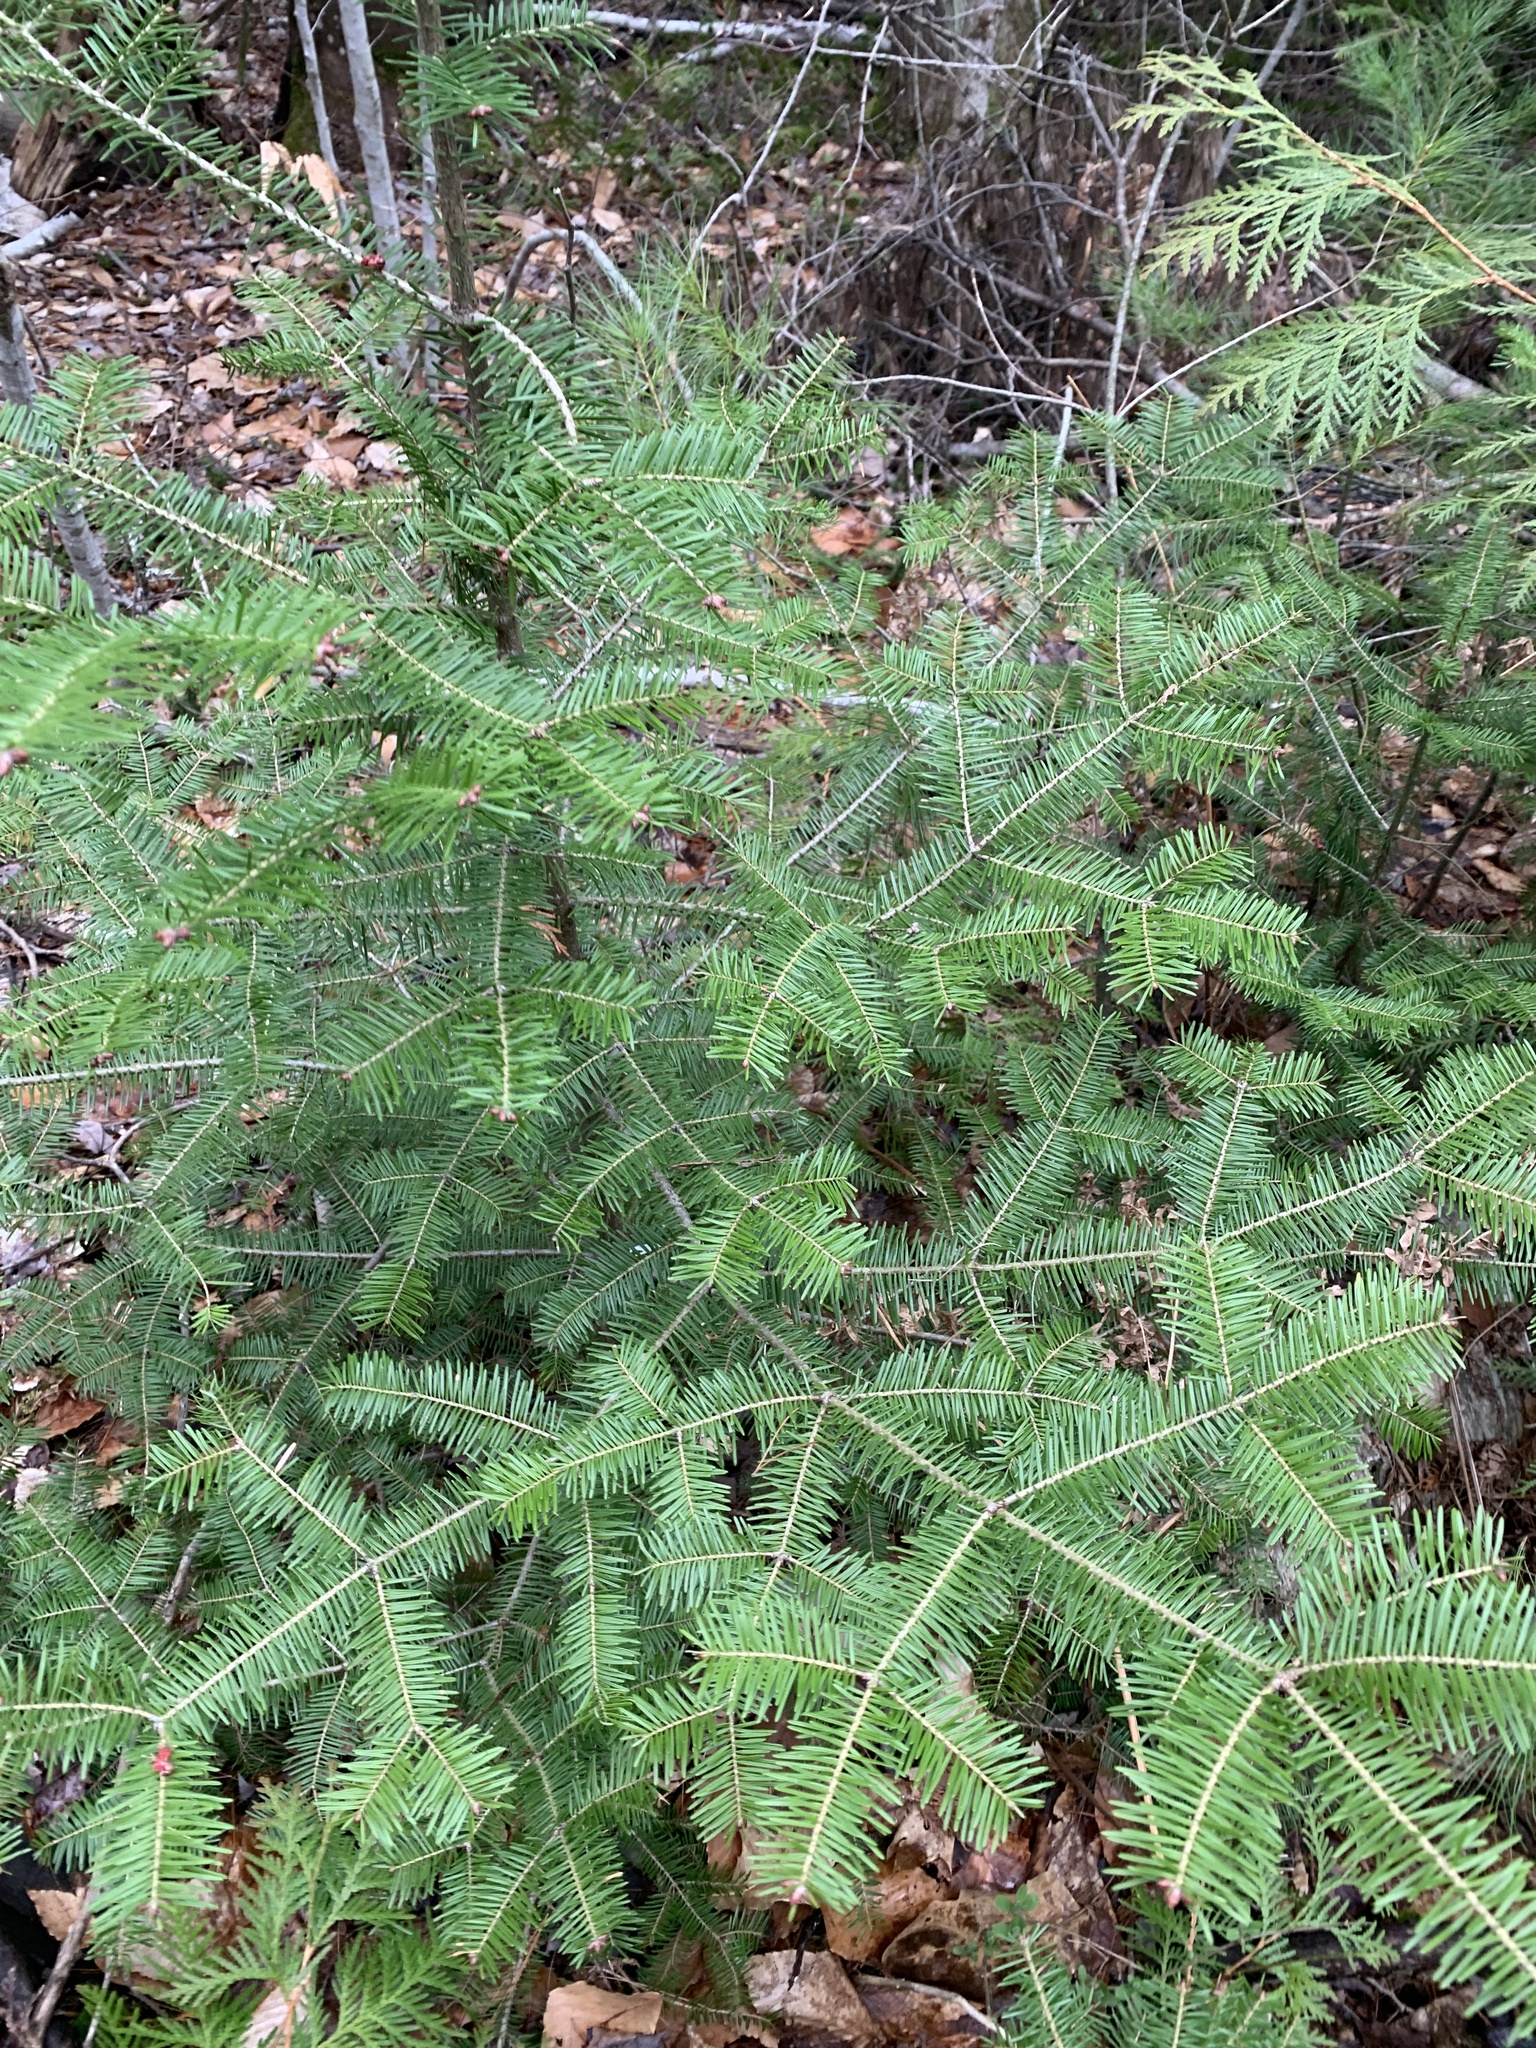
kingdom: Plantae
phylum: Tracheophyta
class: Pinopsida
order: Pinales
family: Pinaceae
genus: Abies
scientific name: Abies balsamea
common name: Balsam fir
